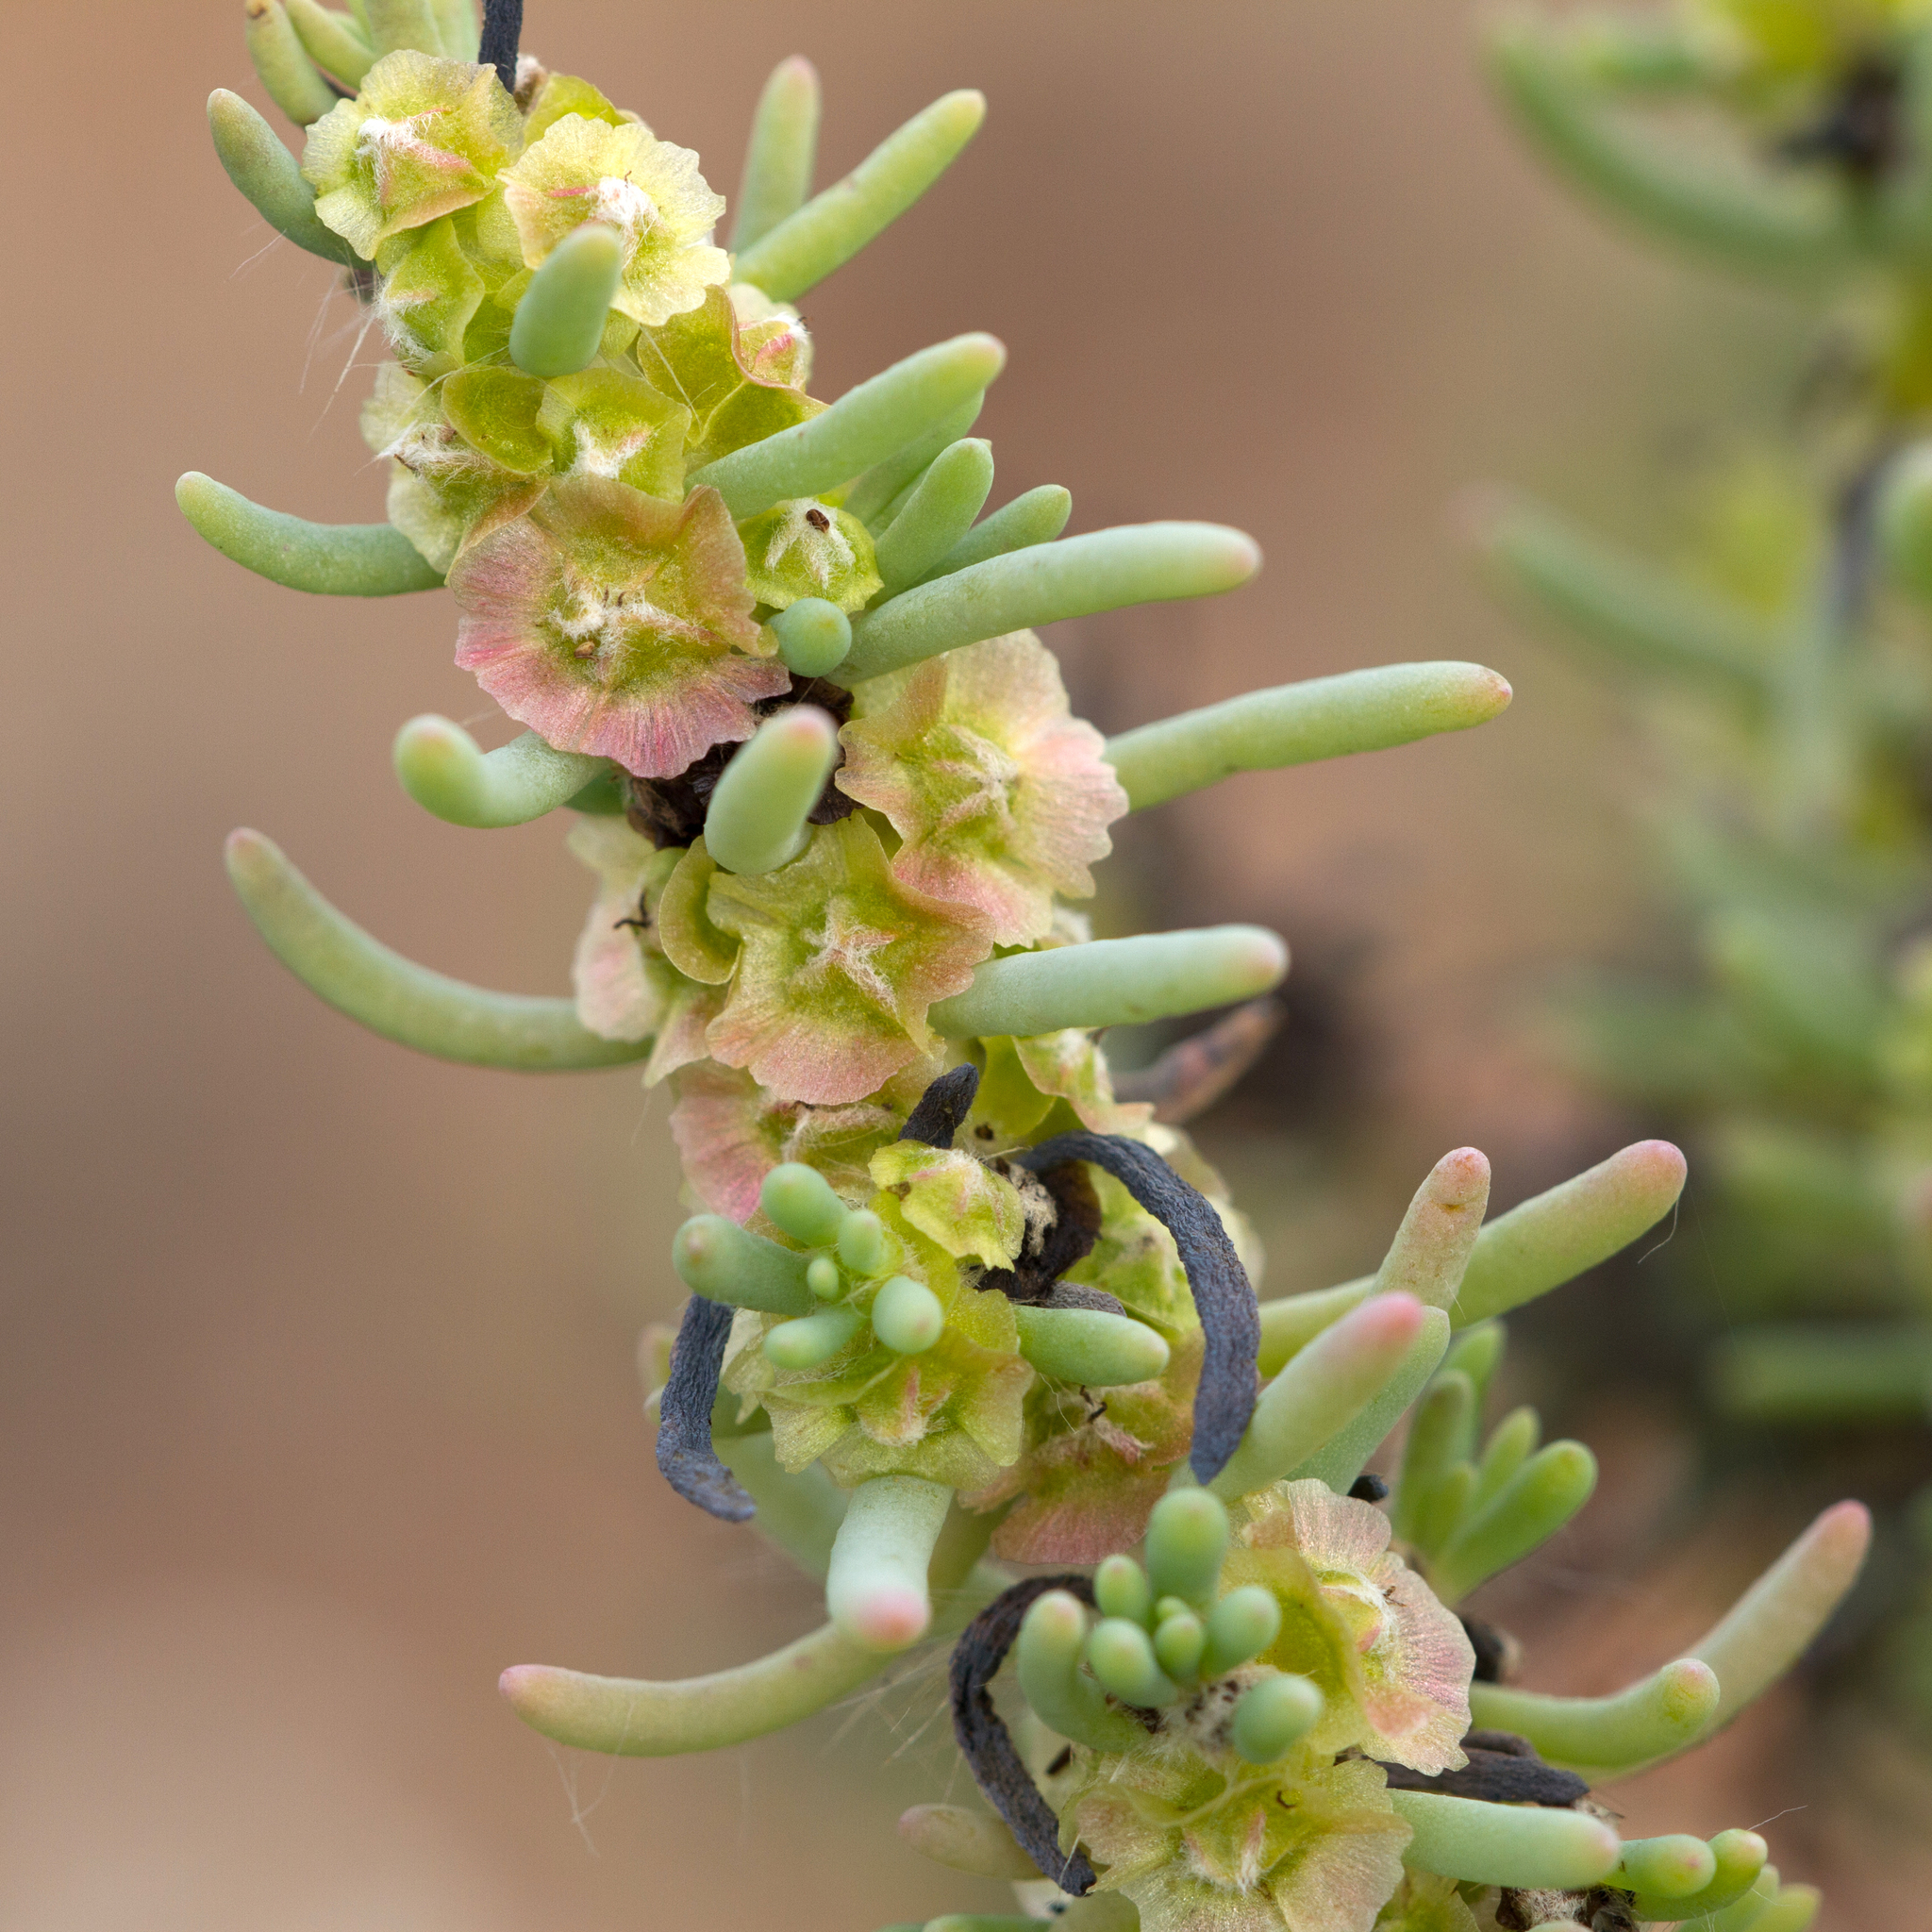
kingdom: Plantae
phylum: Tracheophyta
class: Magnoliopsida
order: Caryophyllales
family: Amaranthaceae
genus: Maireana
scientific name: Maireana pentatropis
